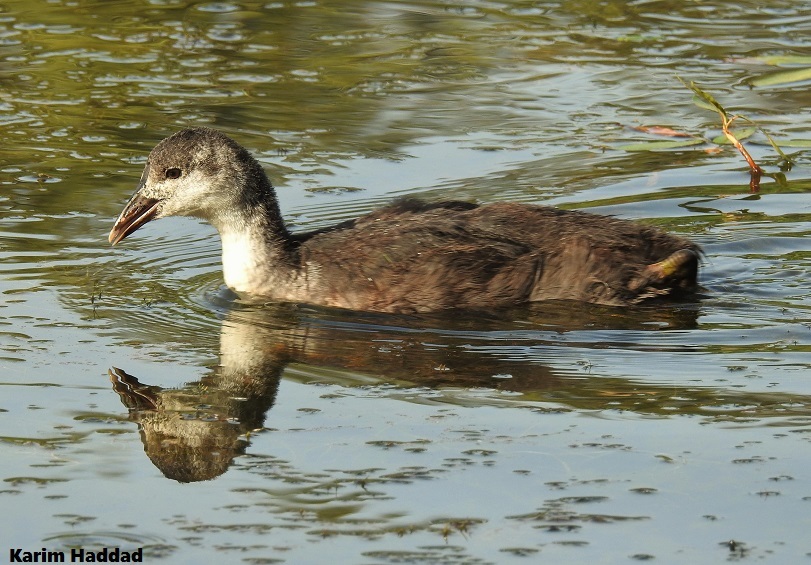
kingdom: Animalia
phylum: Chordata
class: Aves
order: Gruiformes
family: Rallidae
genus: Fulica
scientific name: Fulica atra
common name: Eurasian coot
